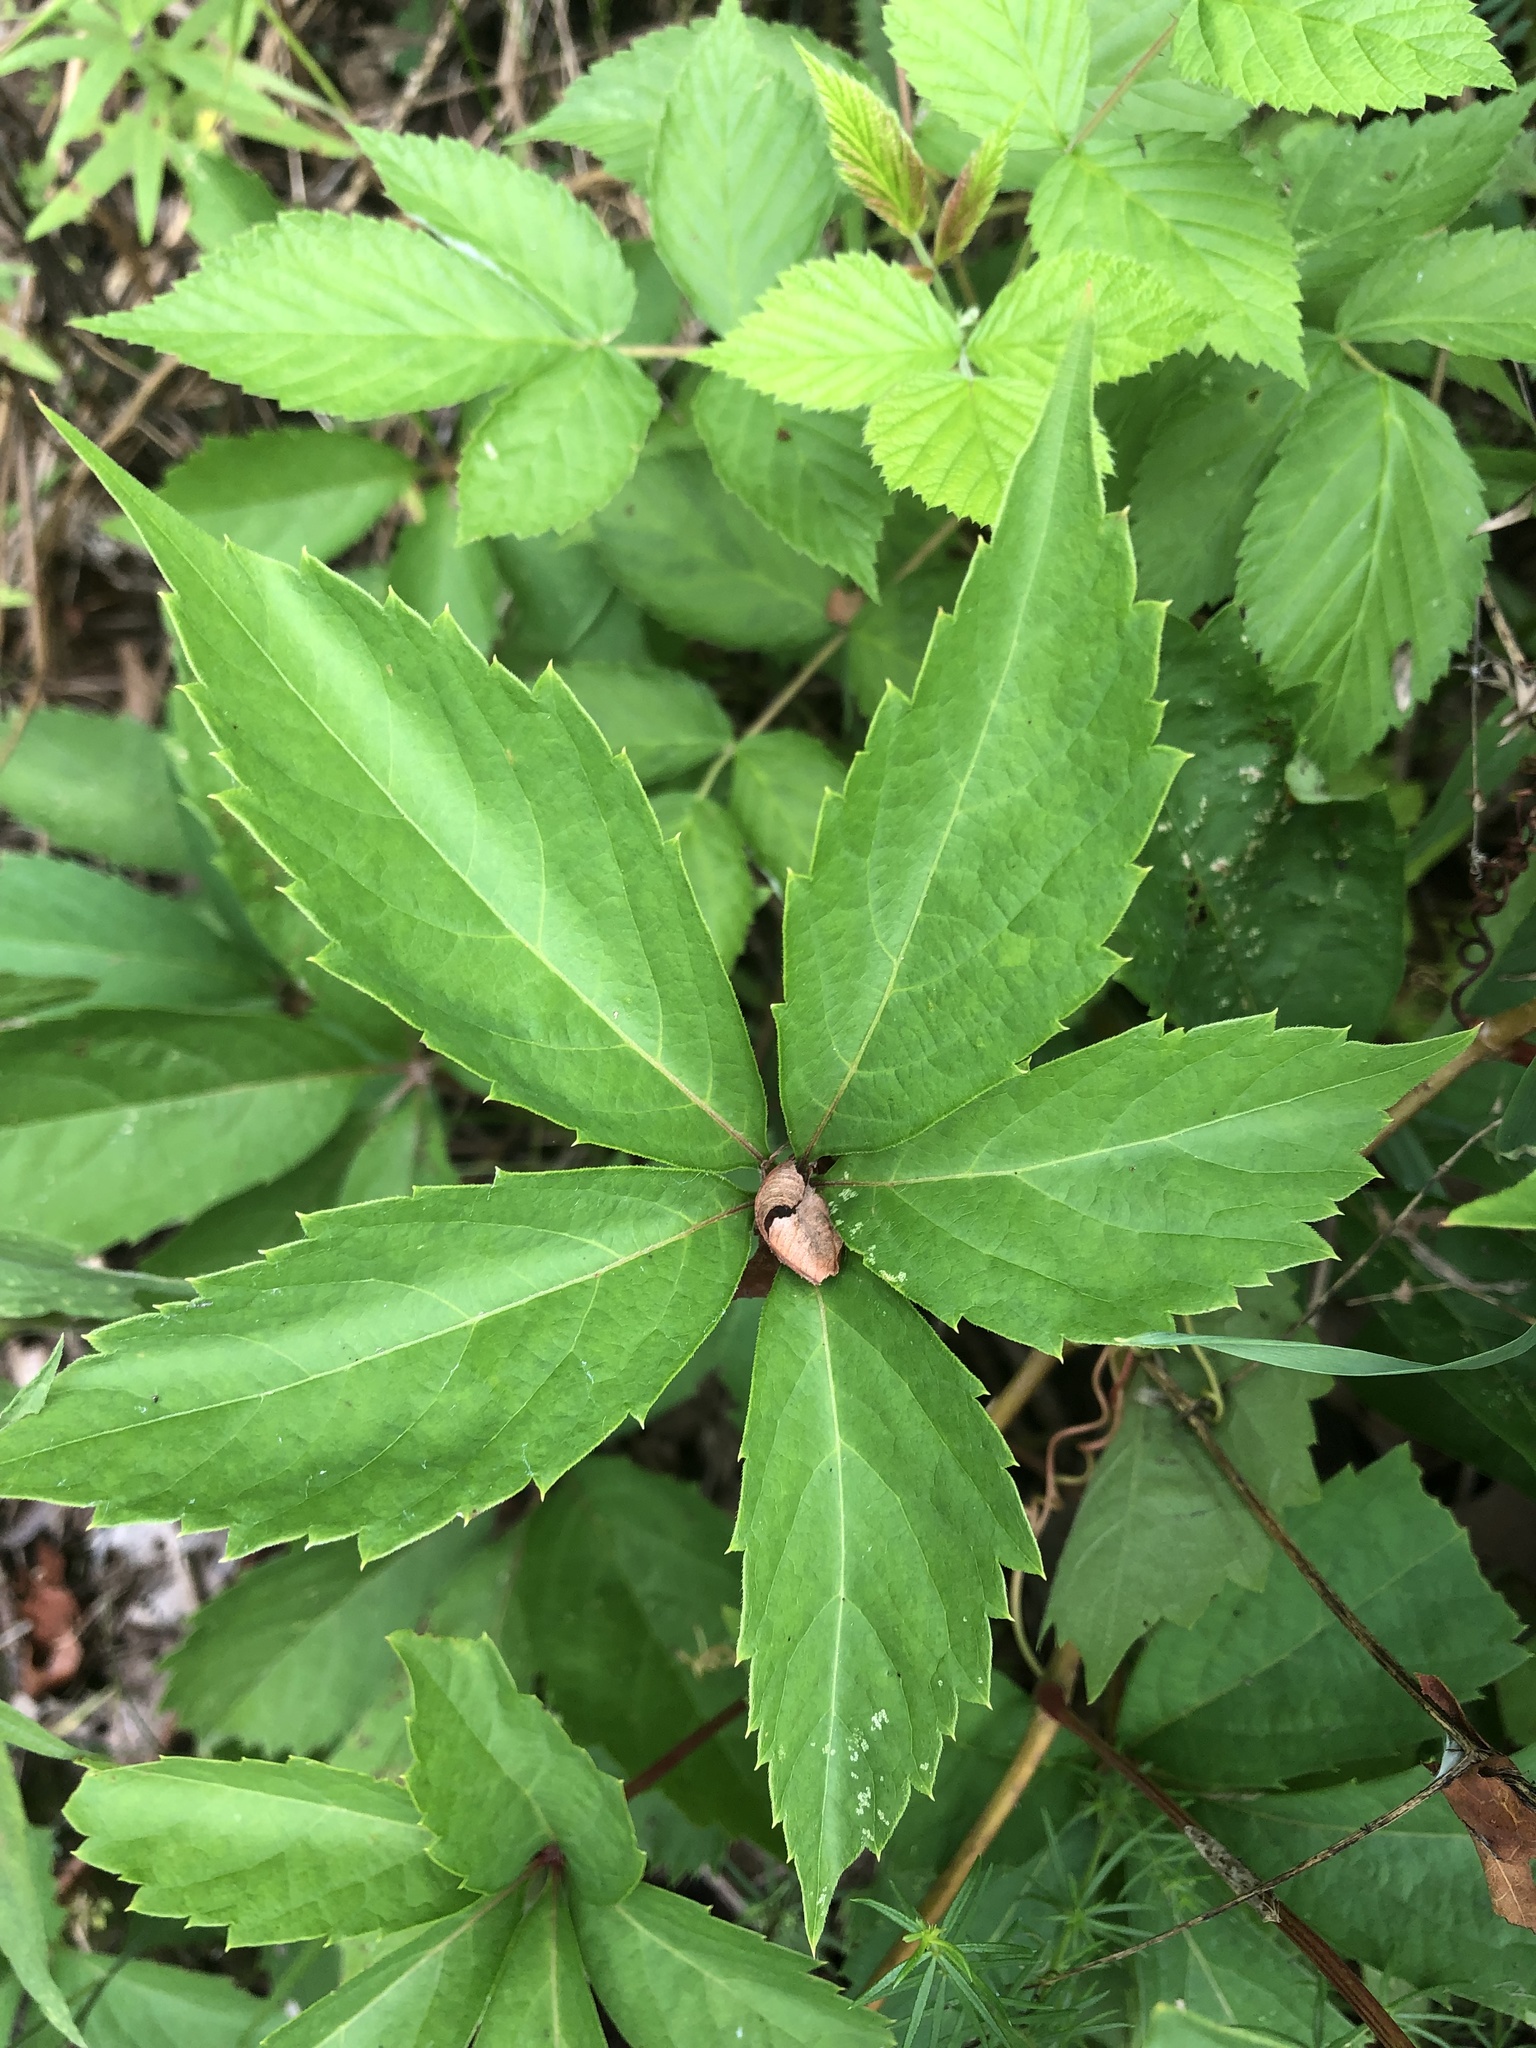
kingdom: Plantae
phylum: Tracheophyta
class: Magnoliopsida
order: Vitales
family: Vitaceae
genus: Parthenocissus
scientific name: Parthenocissus quinquefolia
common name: Virginia-creeper
